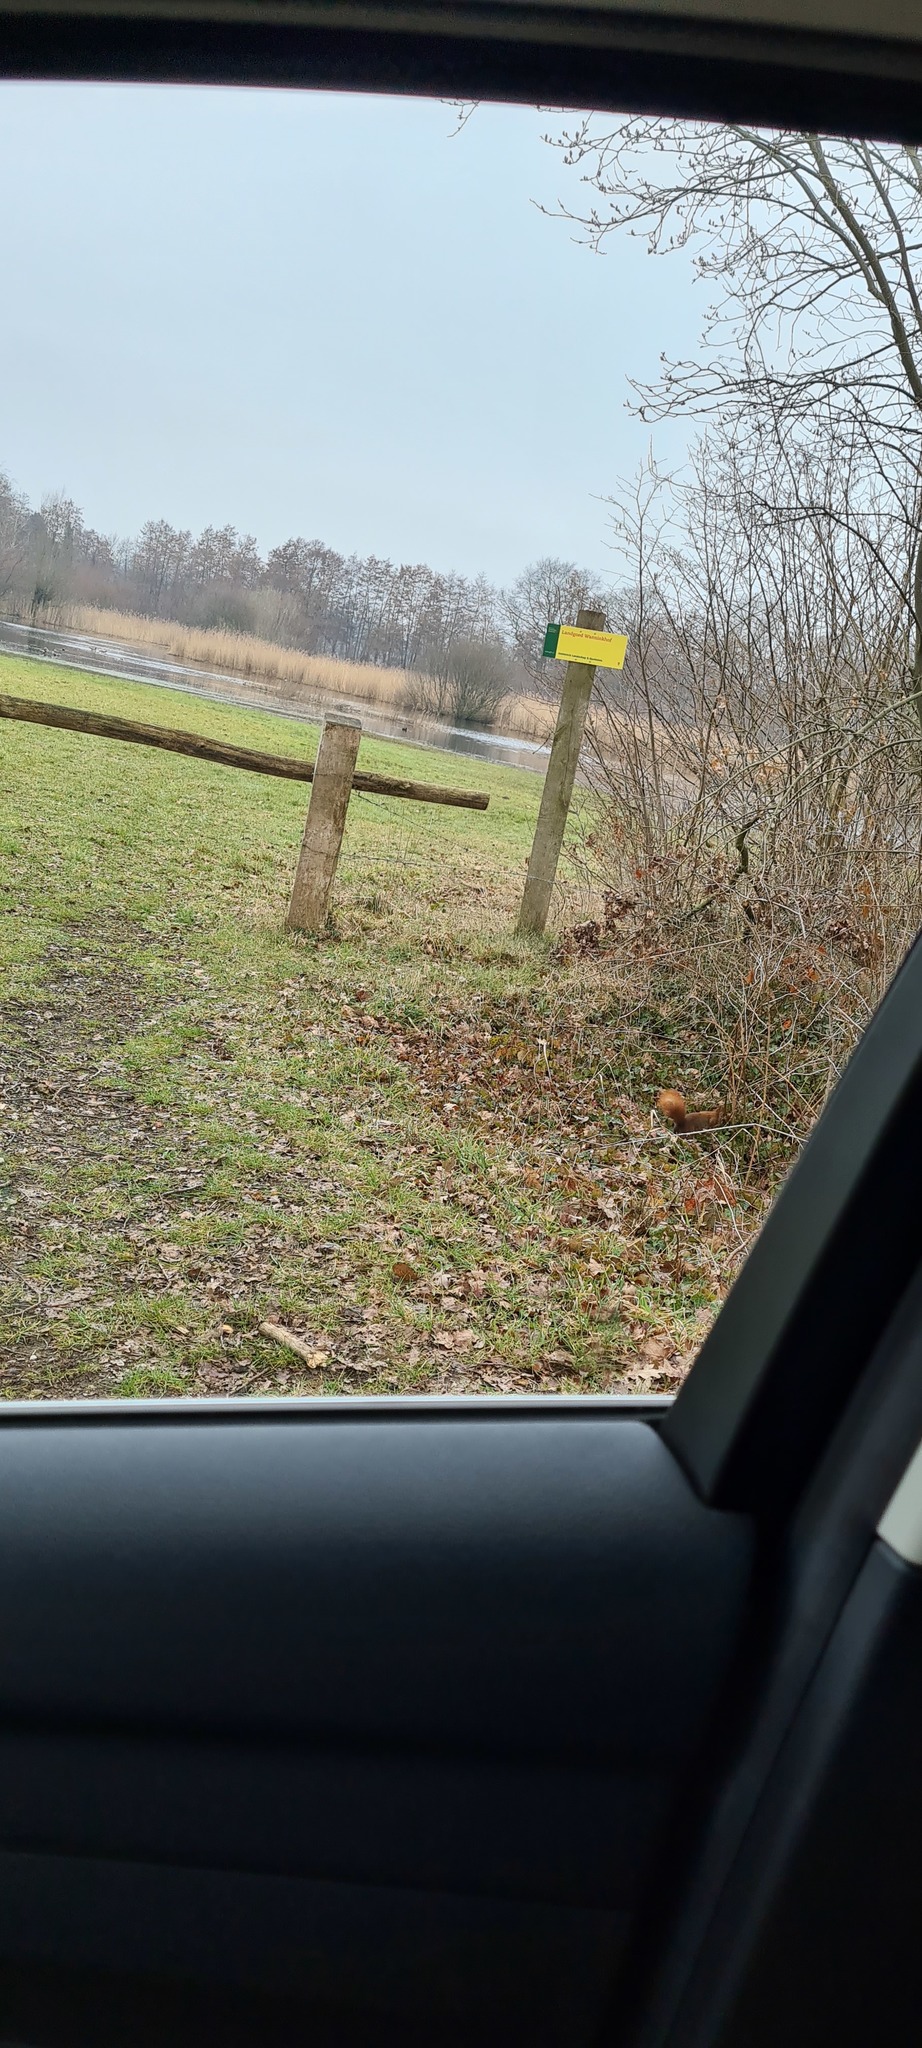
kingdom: Animalia
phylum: Chordata
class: Mammalia
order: Rodentia
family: Sciuridae
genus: Sciurus
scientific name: Sciurus vulgaris
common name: Eurasian red squirrel
